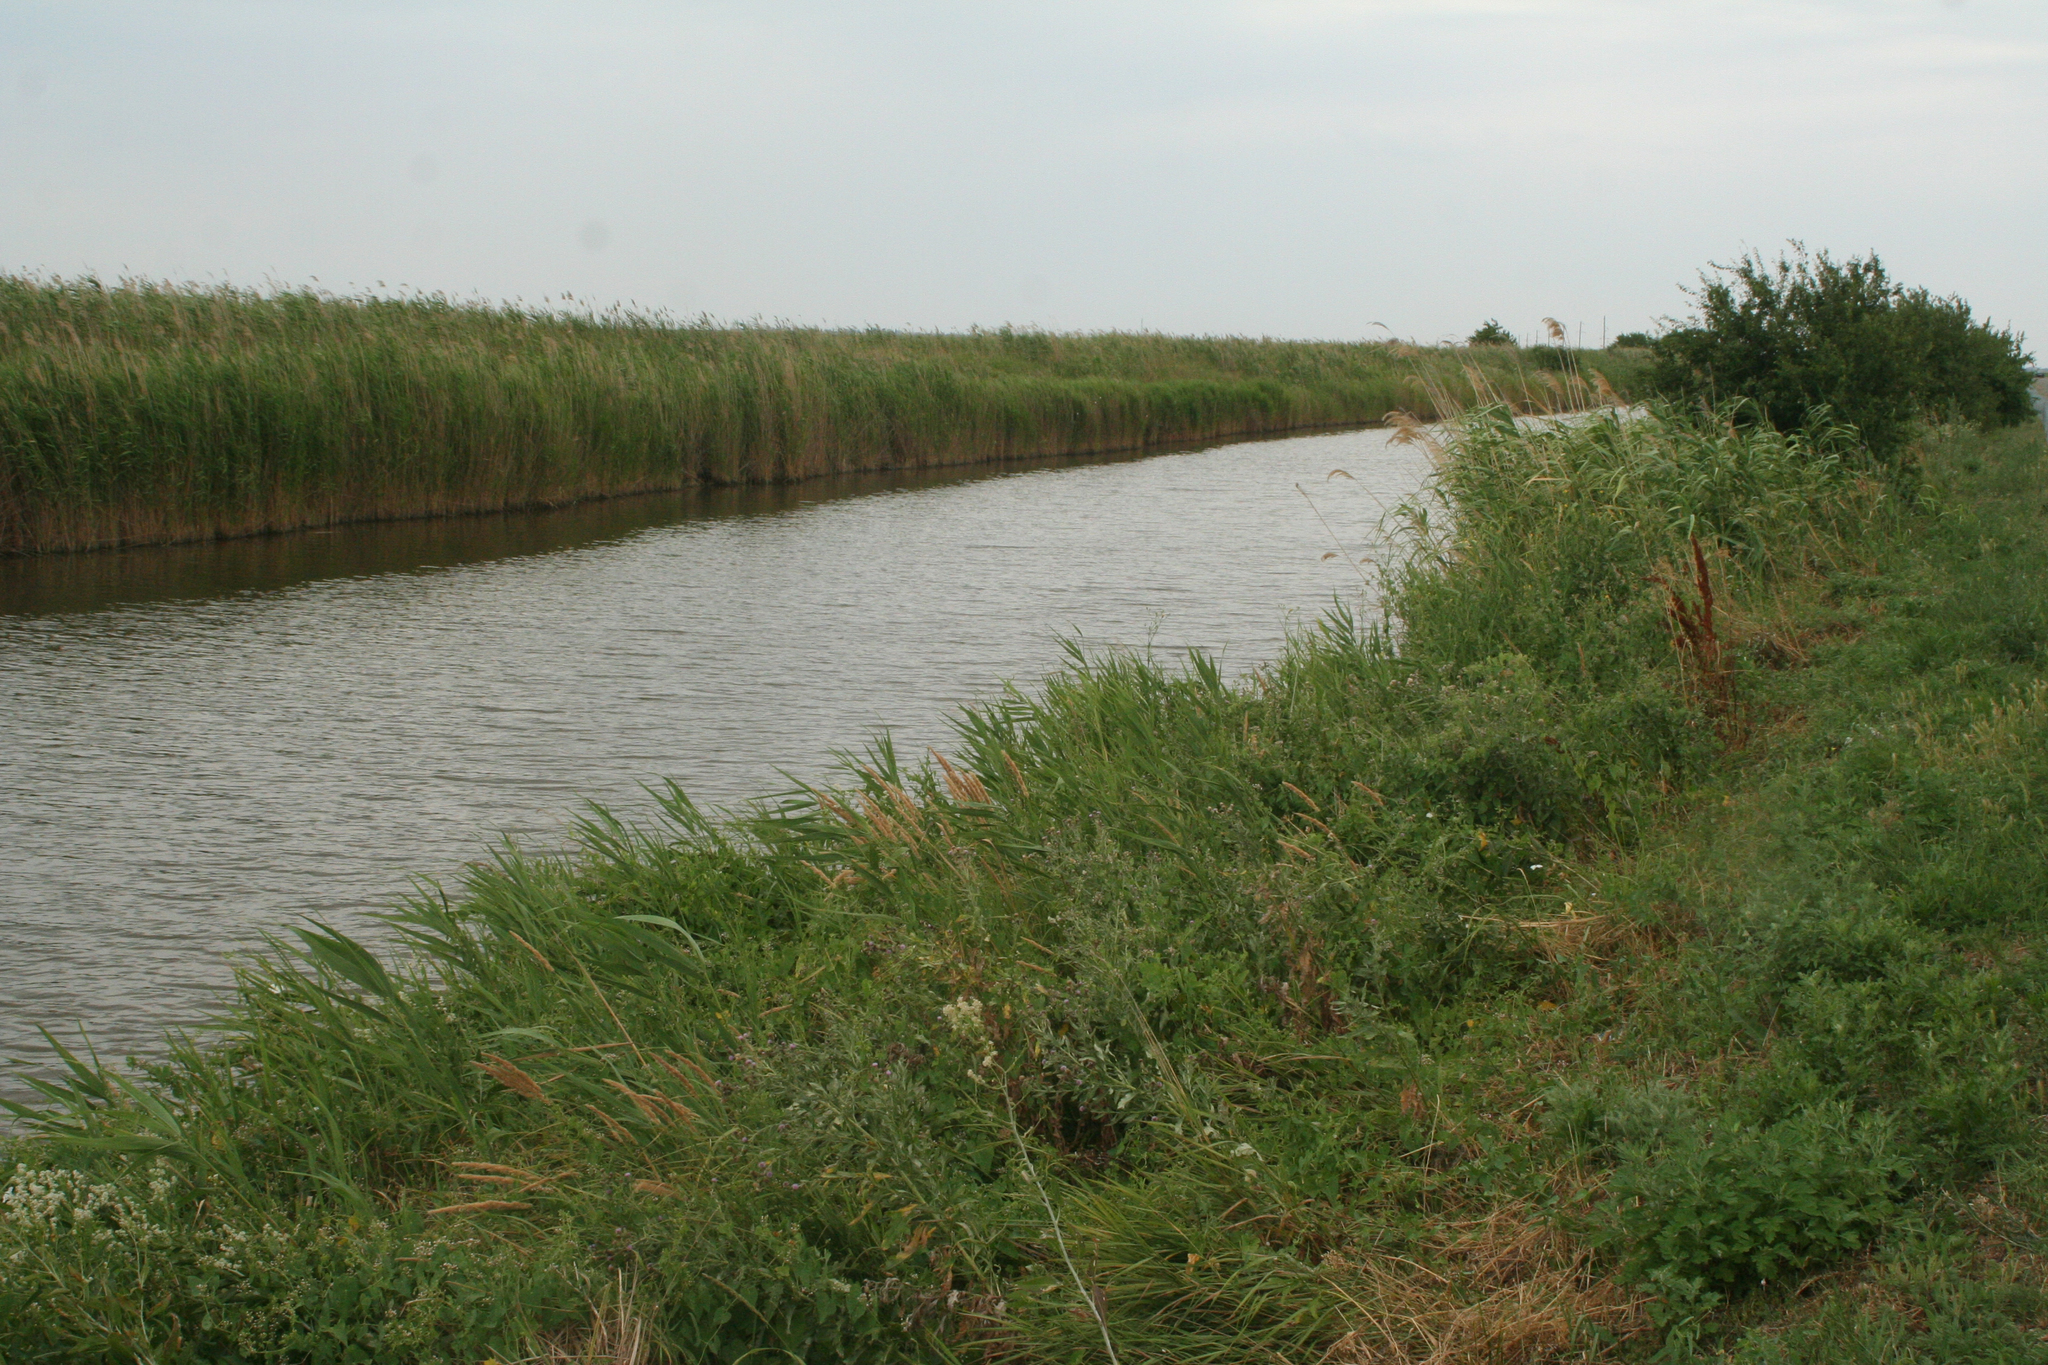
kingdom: Plantae
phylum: Tracheophyta
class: Liliopsida
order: Poales
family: Poaceae
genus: Phragmites
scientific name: Phragmites australis
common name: Common reed
